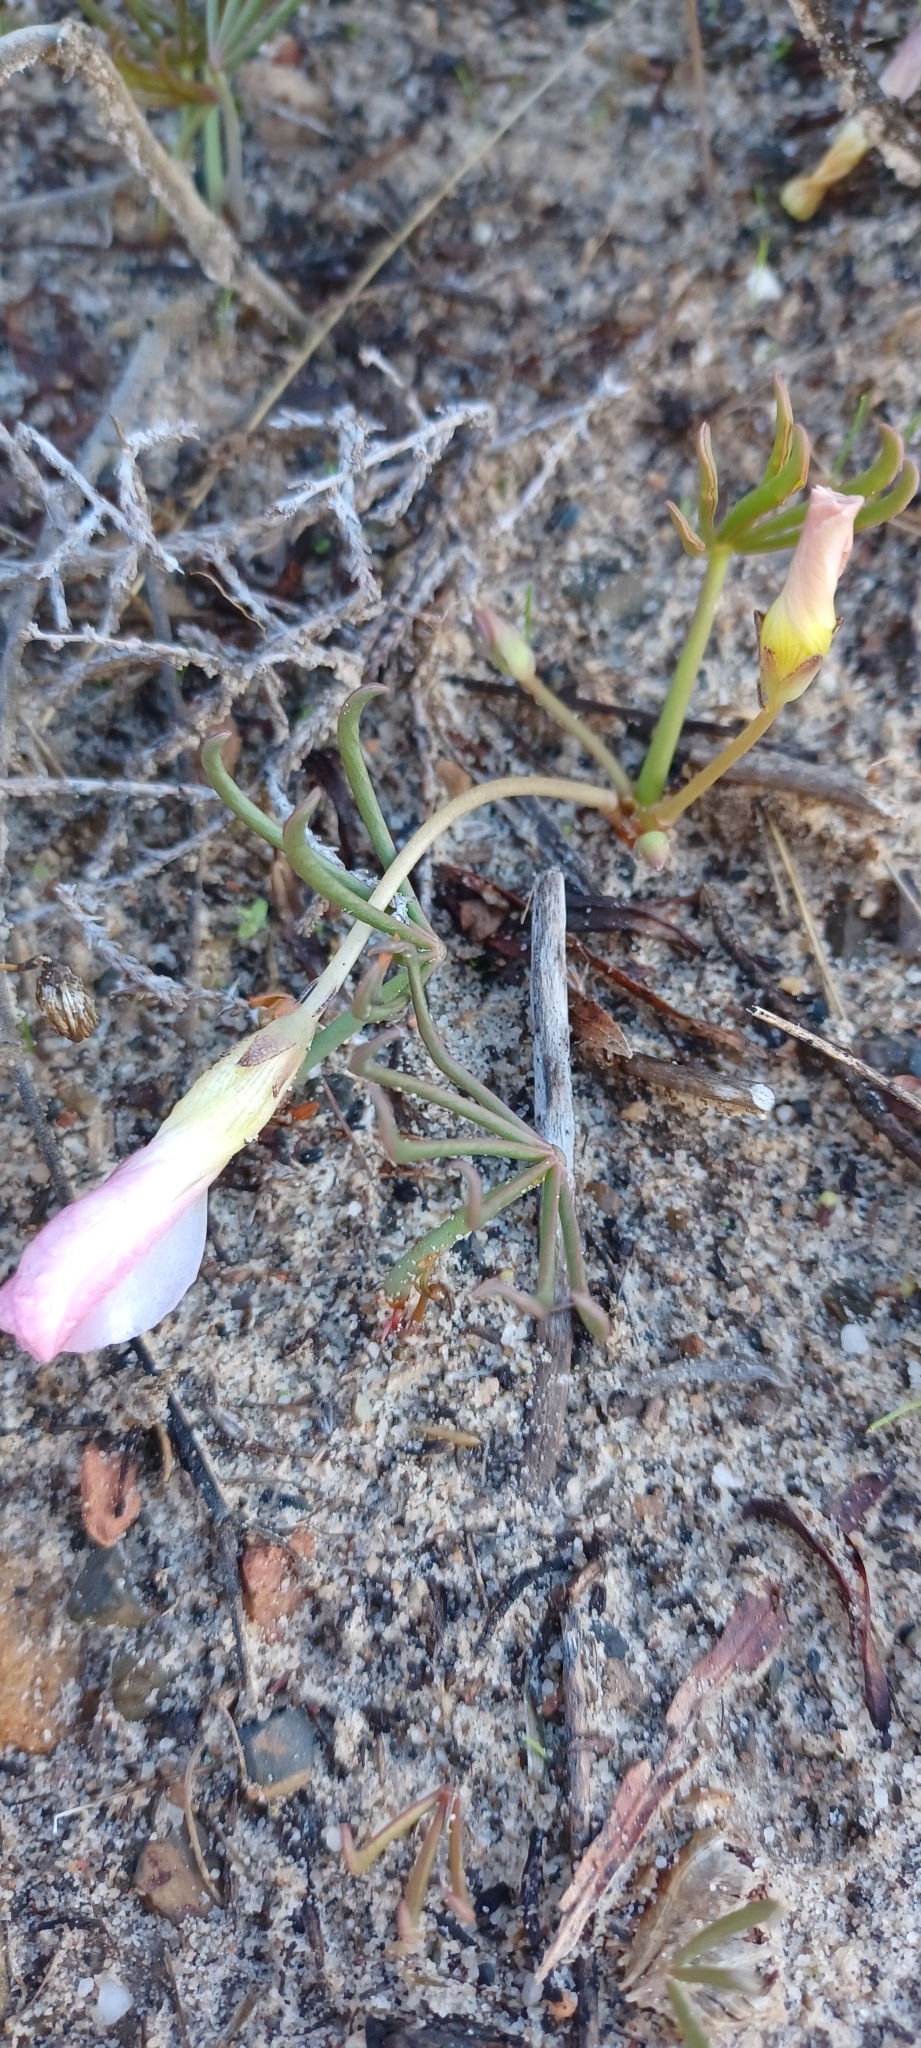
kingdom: Plantae
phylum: Tracheophyta
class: Magnoliopsida
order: Oxalidales
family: Oxalidaceae
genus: Oxalis
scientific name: Oxalis flava
